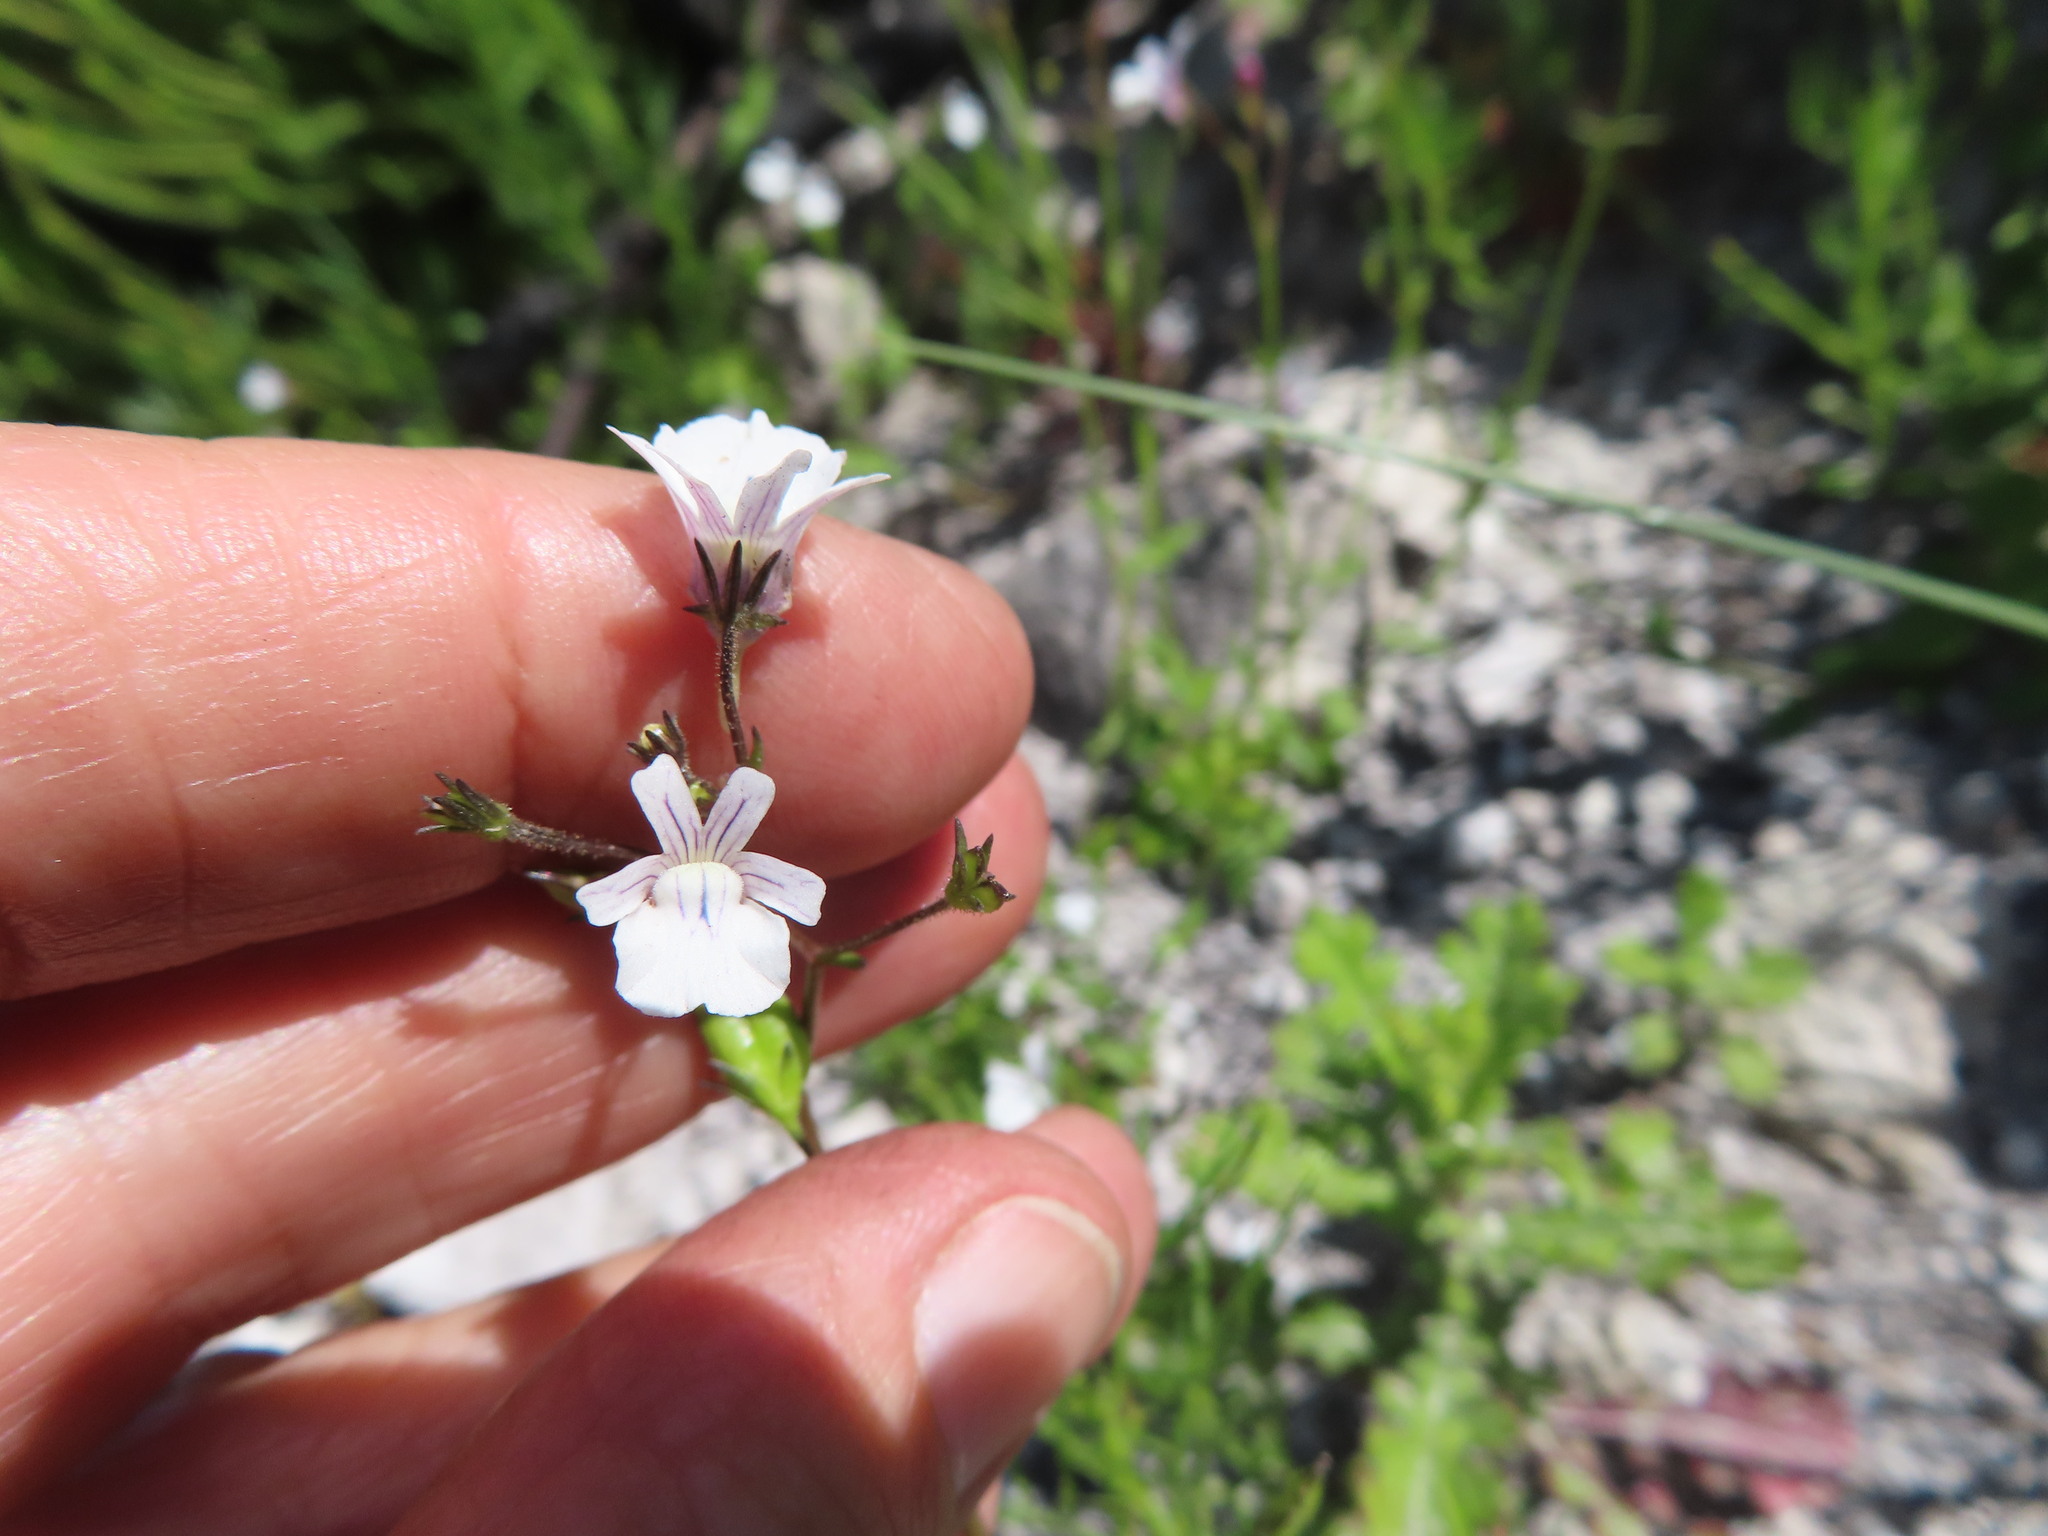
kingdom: Plantae
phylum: Tracheophyta
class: Magnoliopsida
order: Lamiales
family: Scrophulariaceae
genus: Nemesia
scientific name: Nemesia diffusa
